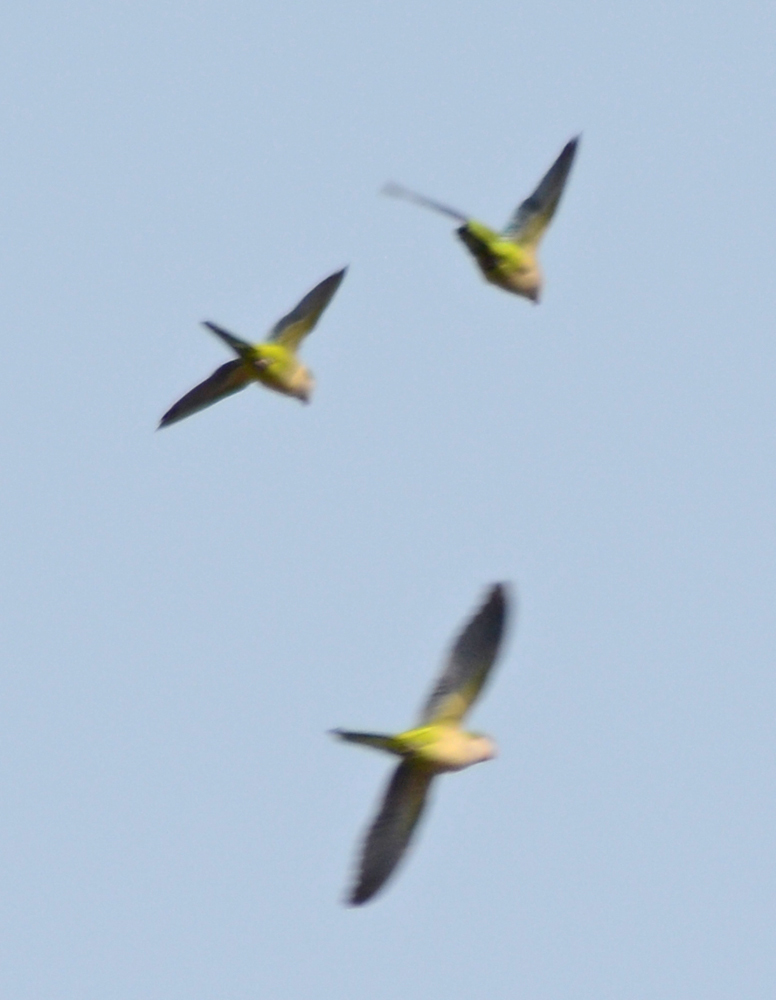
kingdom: Animalia
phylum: Chordata
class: Aves
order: Psittaciformes
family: Psittacidae
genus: Myiopsitta
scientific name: Myiopsitta monachus
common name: Monk parakeet
